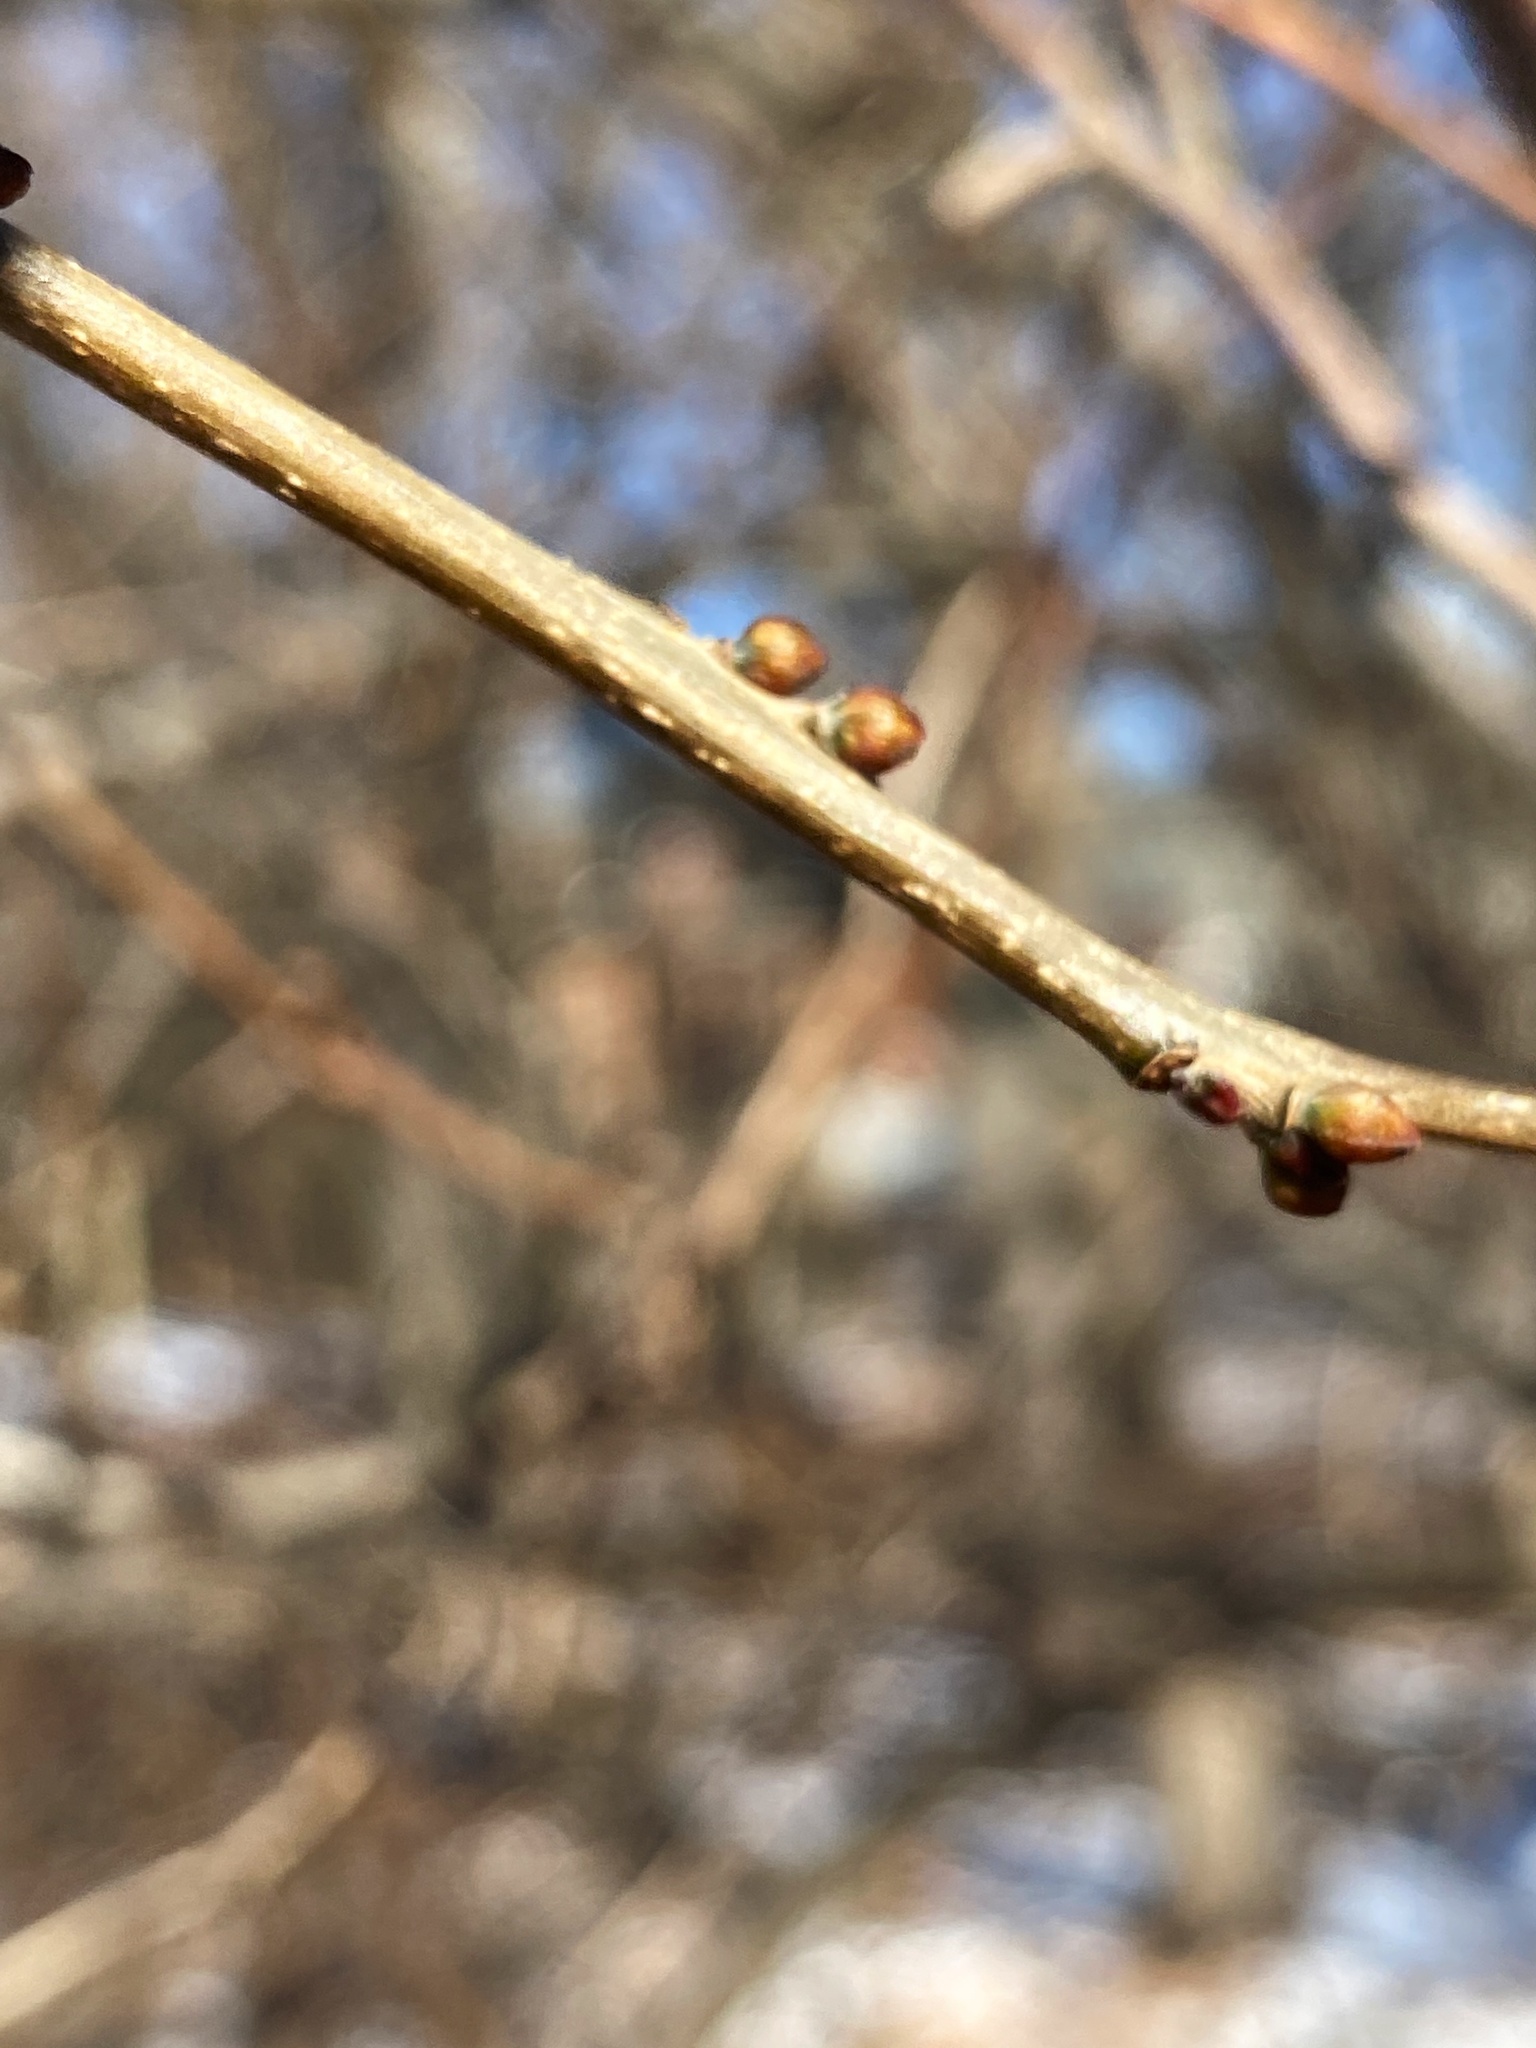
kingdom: Plantae
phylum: Tracheophyta
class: Magnoliopsida
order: Laurales
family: Lauraceae
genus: Lindera
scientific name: Lindera benzoin
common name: Spicebush
